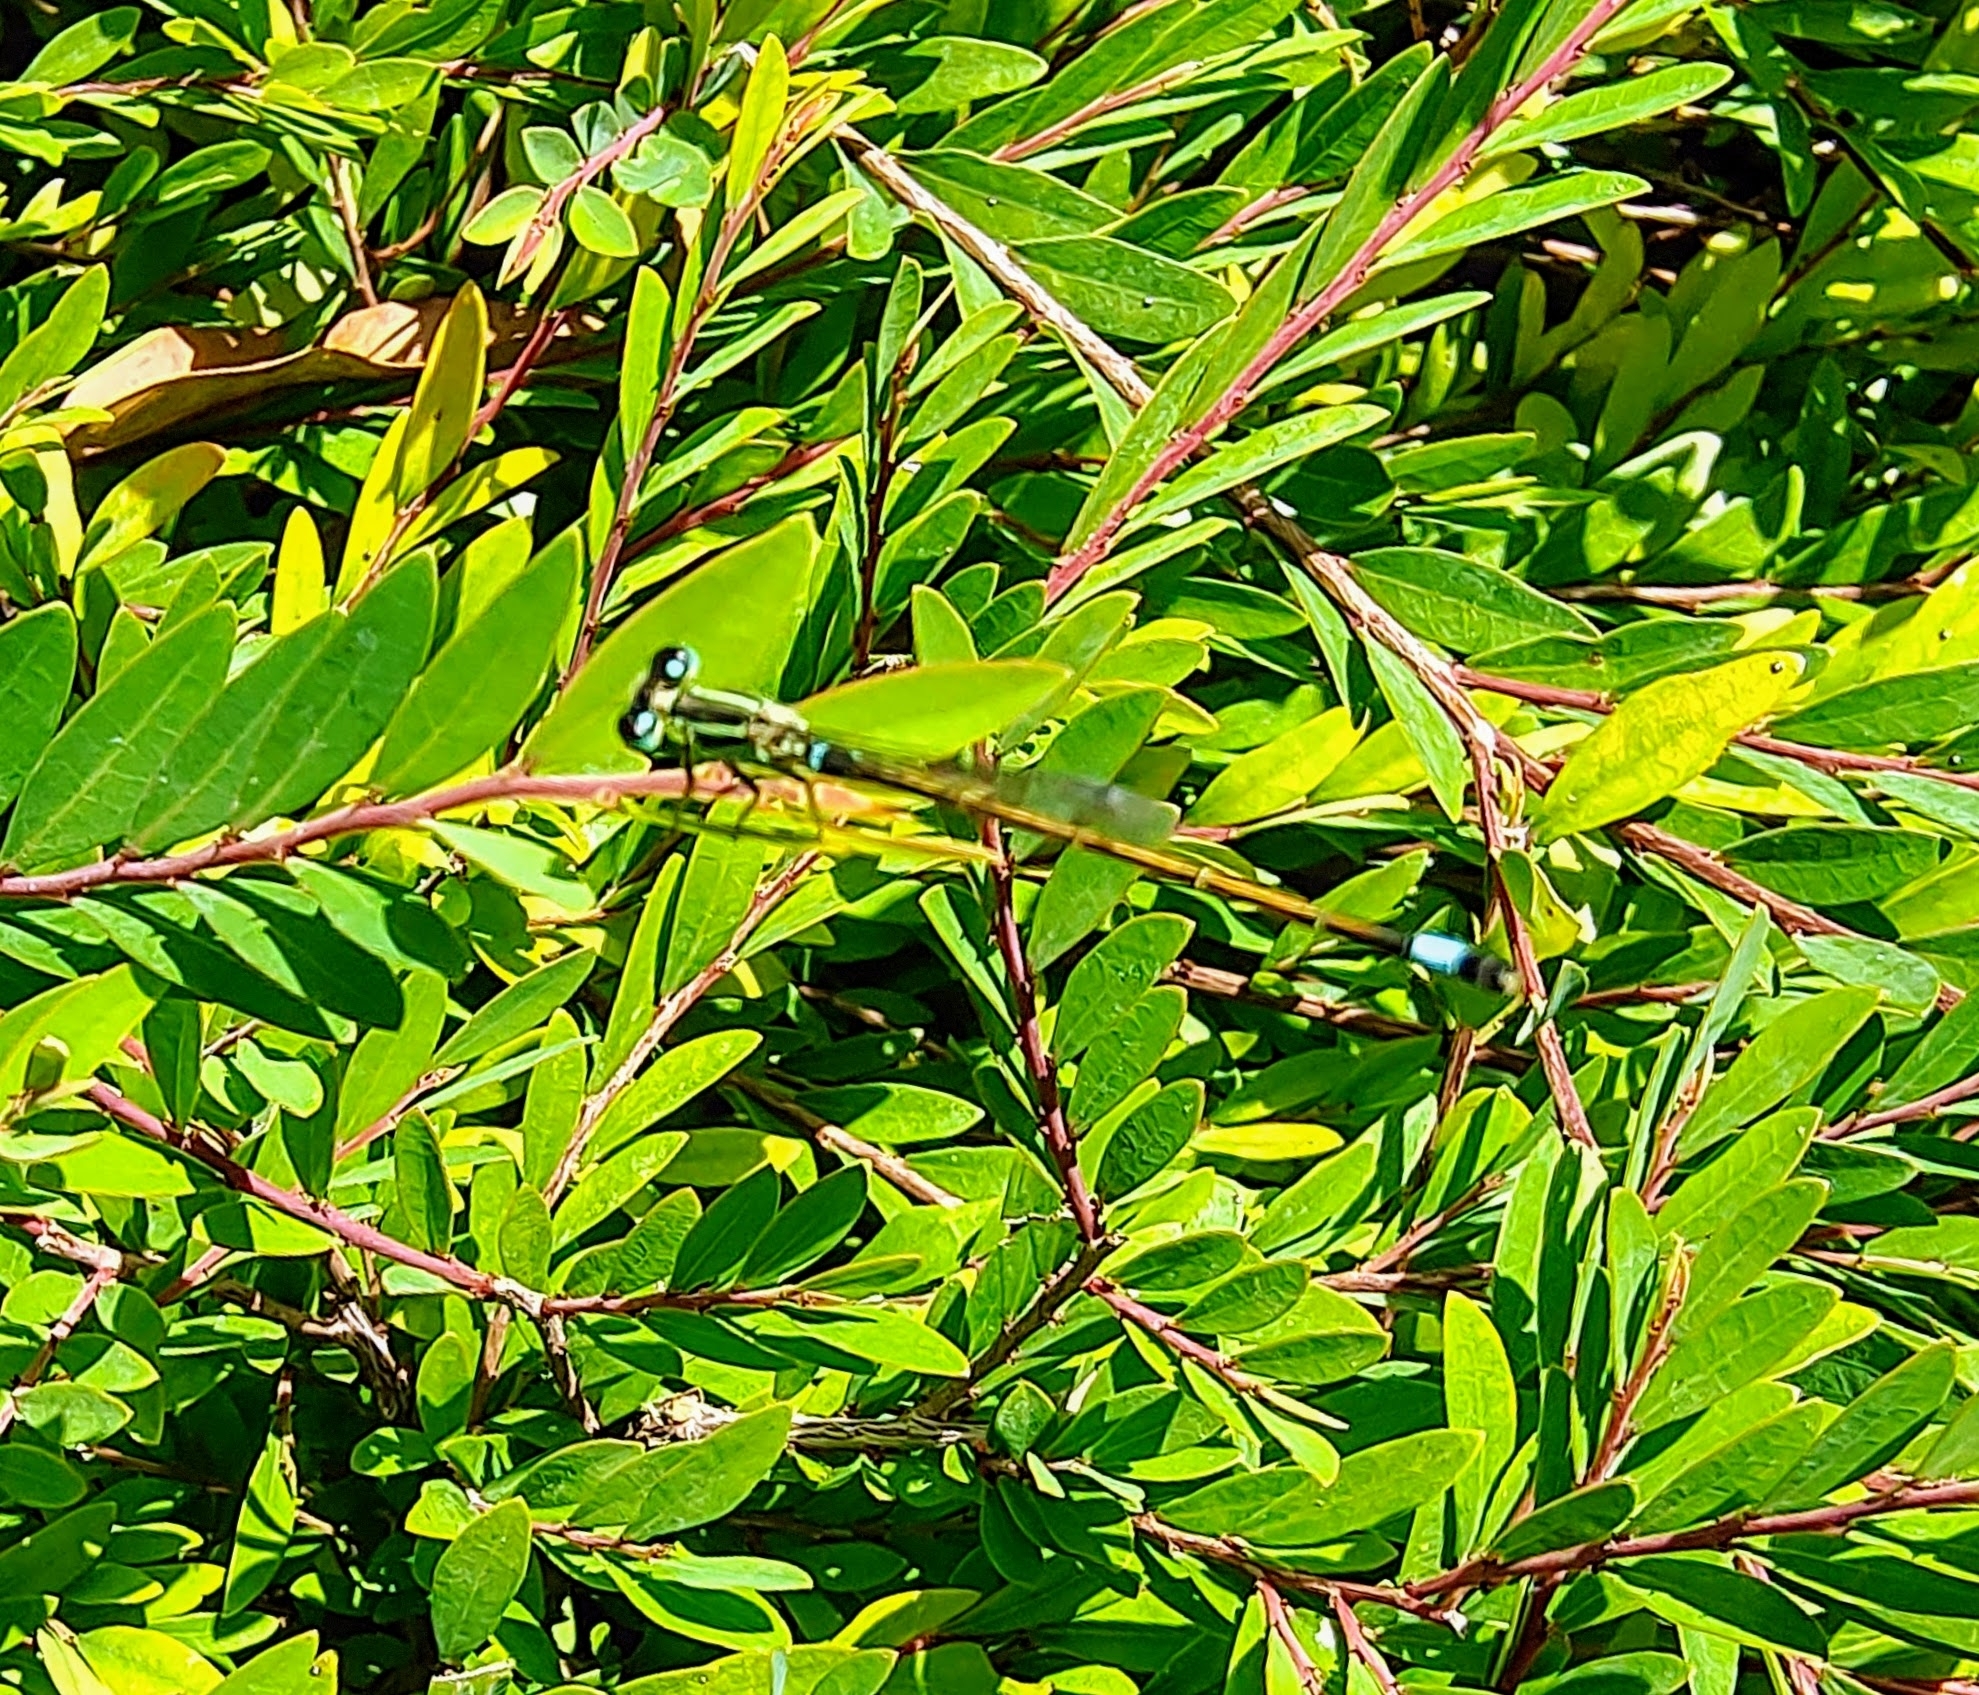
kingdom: Animalia
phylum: Arthropoda
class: Insecta
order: Odonata
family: Coenagrionidae
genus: Ischnura
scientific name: Ischnura senegalensis
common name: Tropical bluetail
